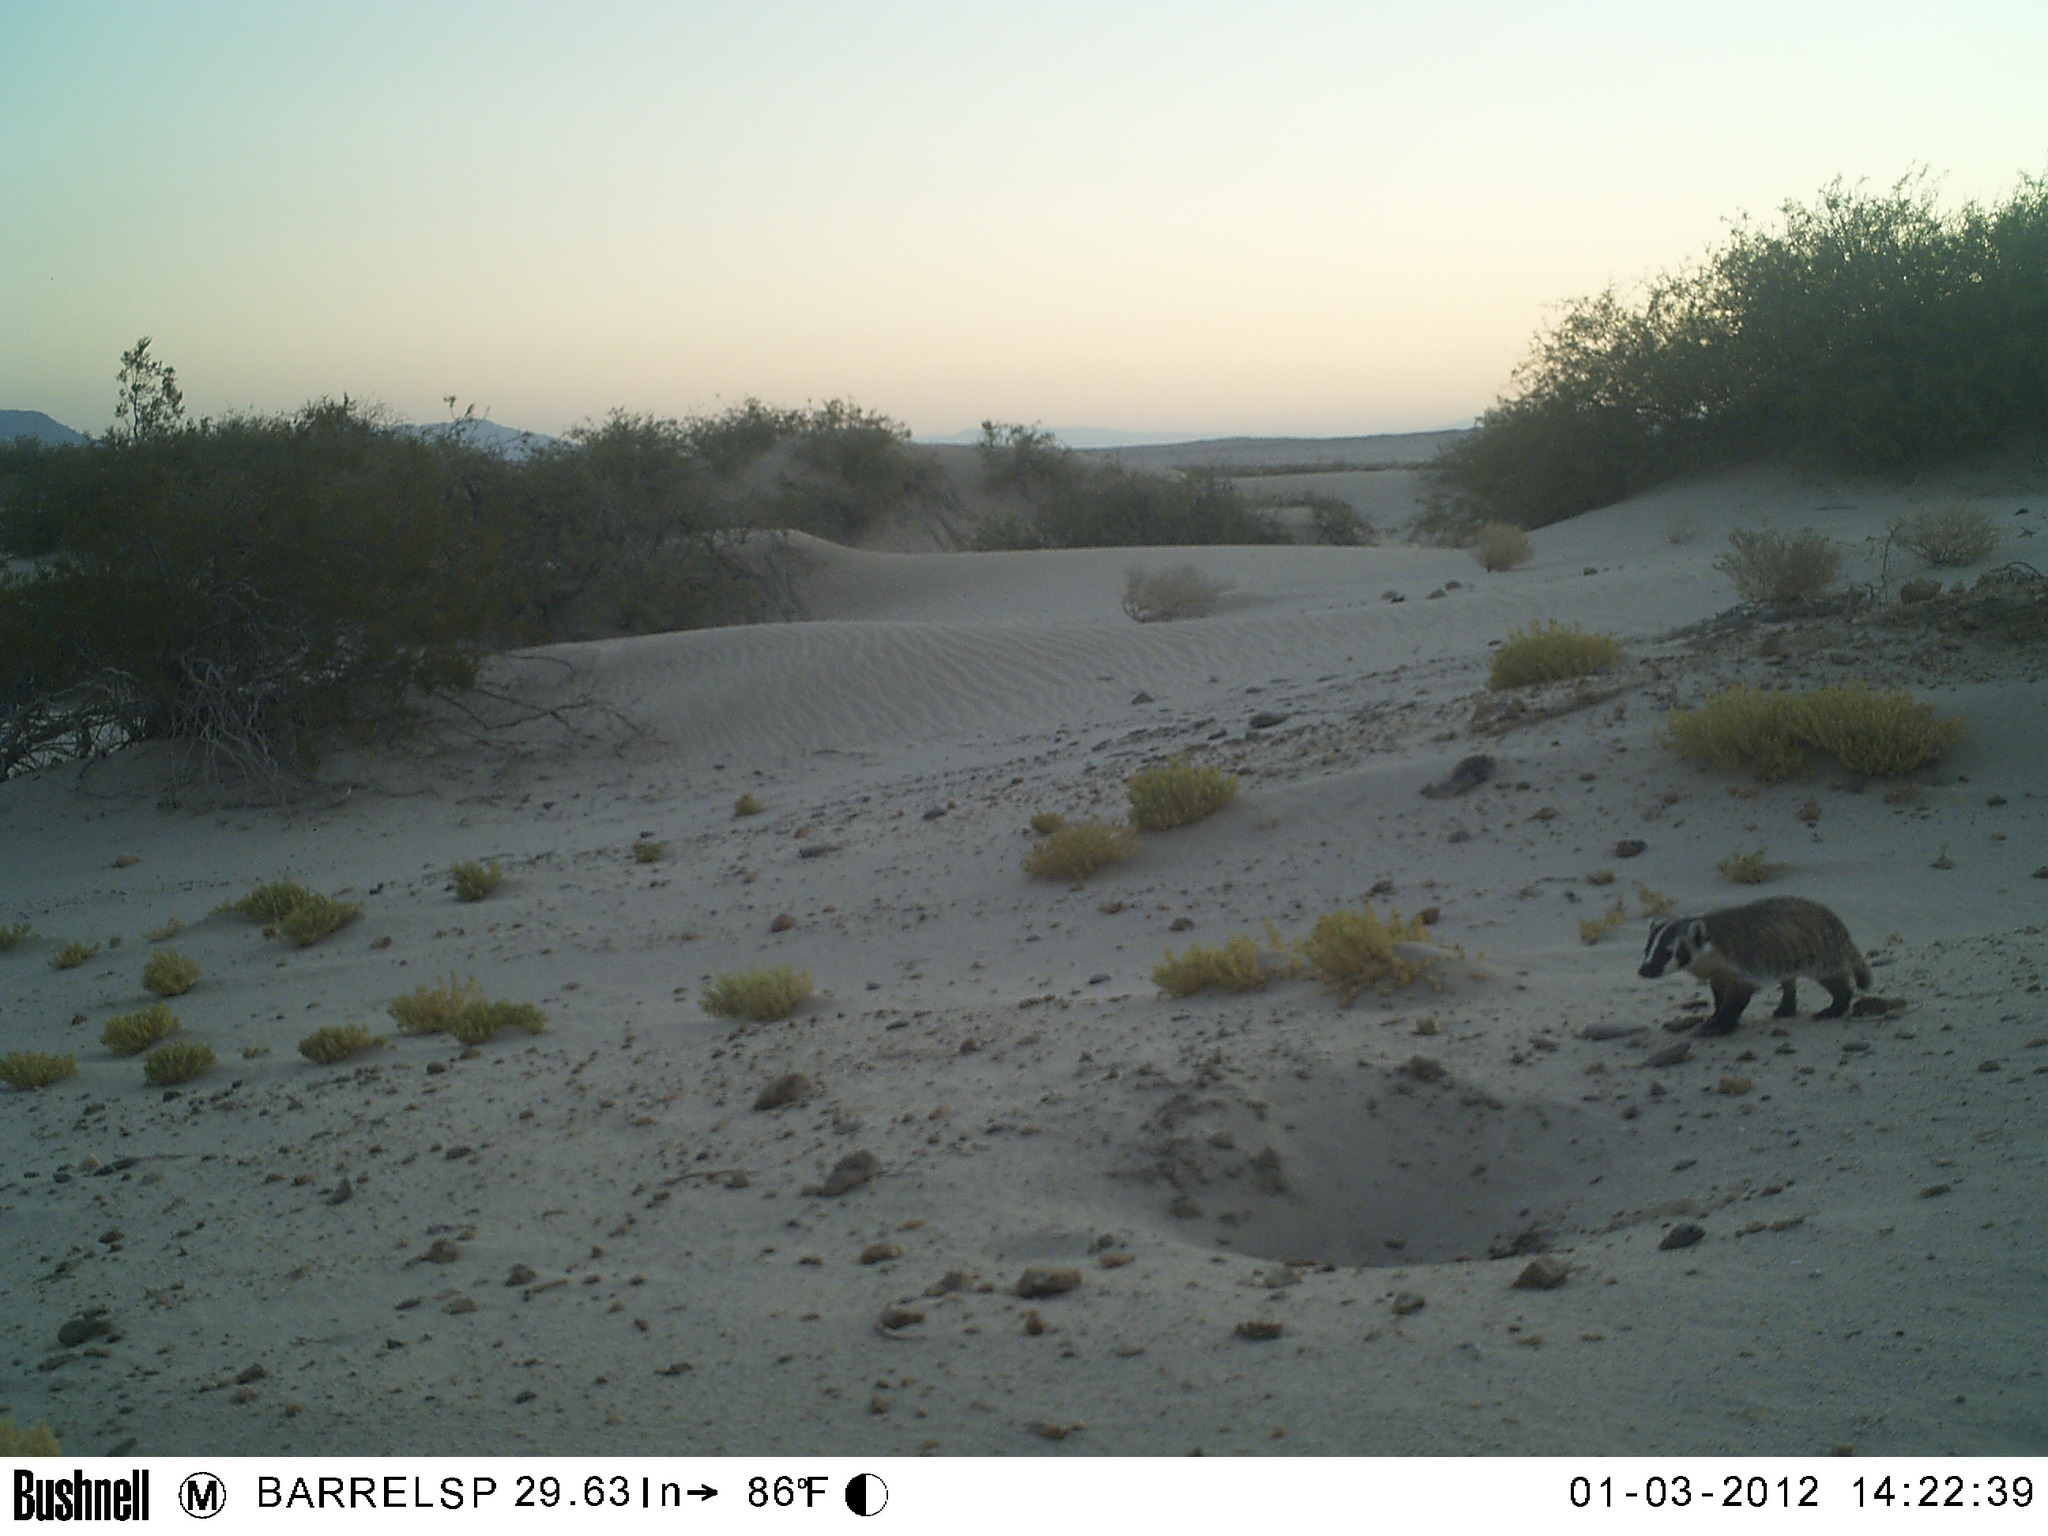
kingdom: Animalia
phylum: Chordata
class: Mammalia
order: Carnivora
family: Mustelidae
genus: Taxidea
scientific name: Taxidea taxus
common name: American badger
